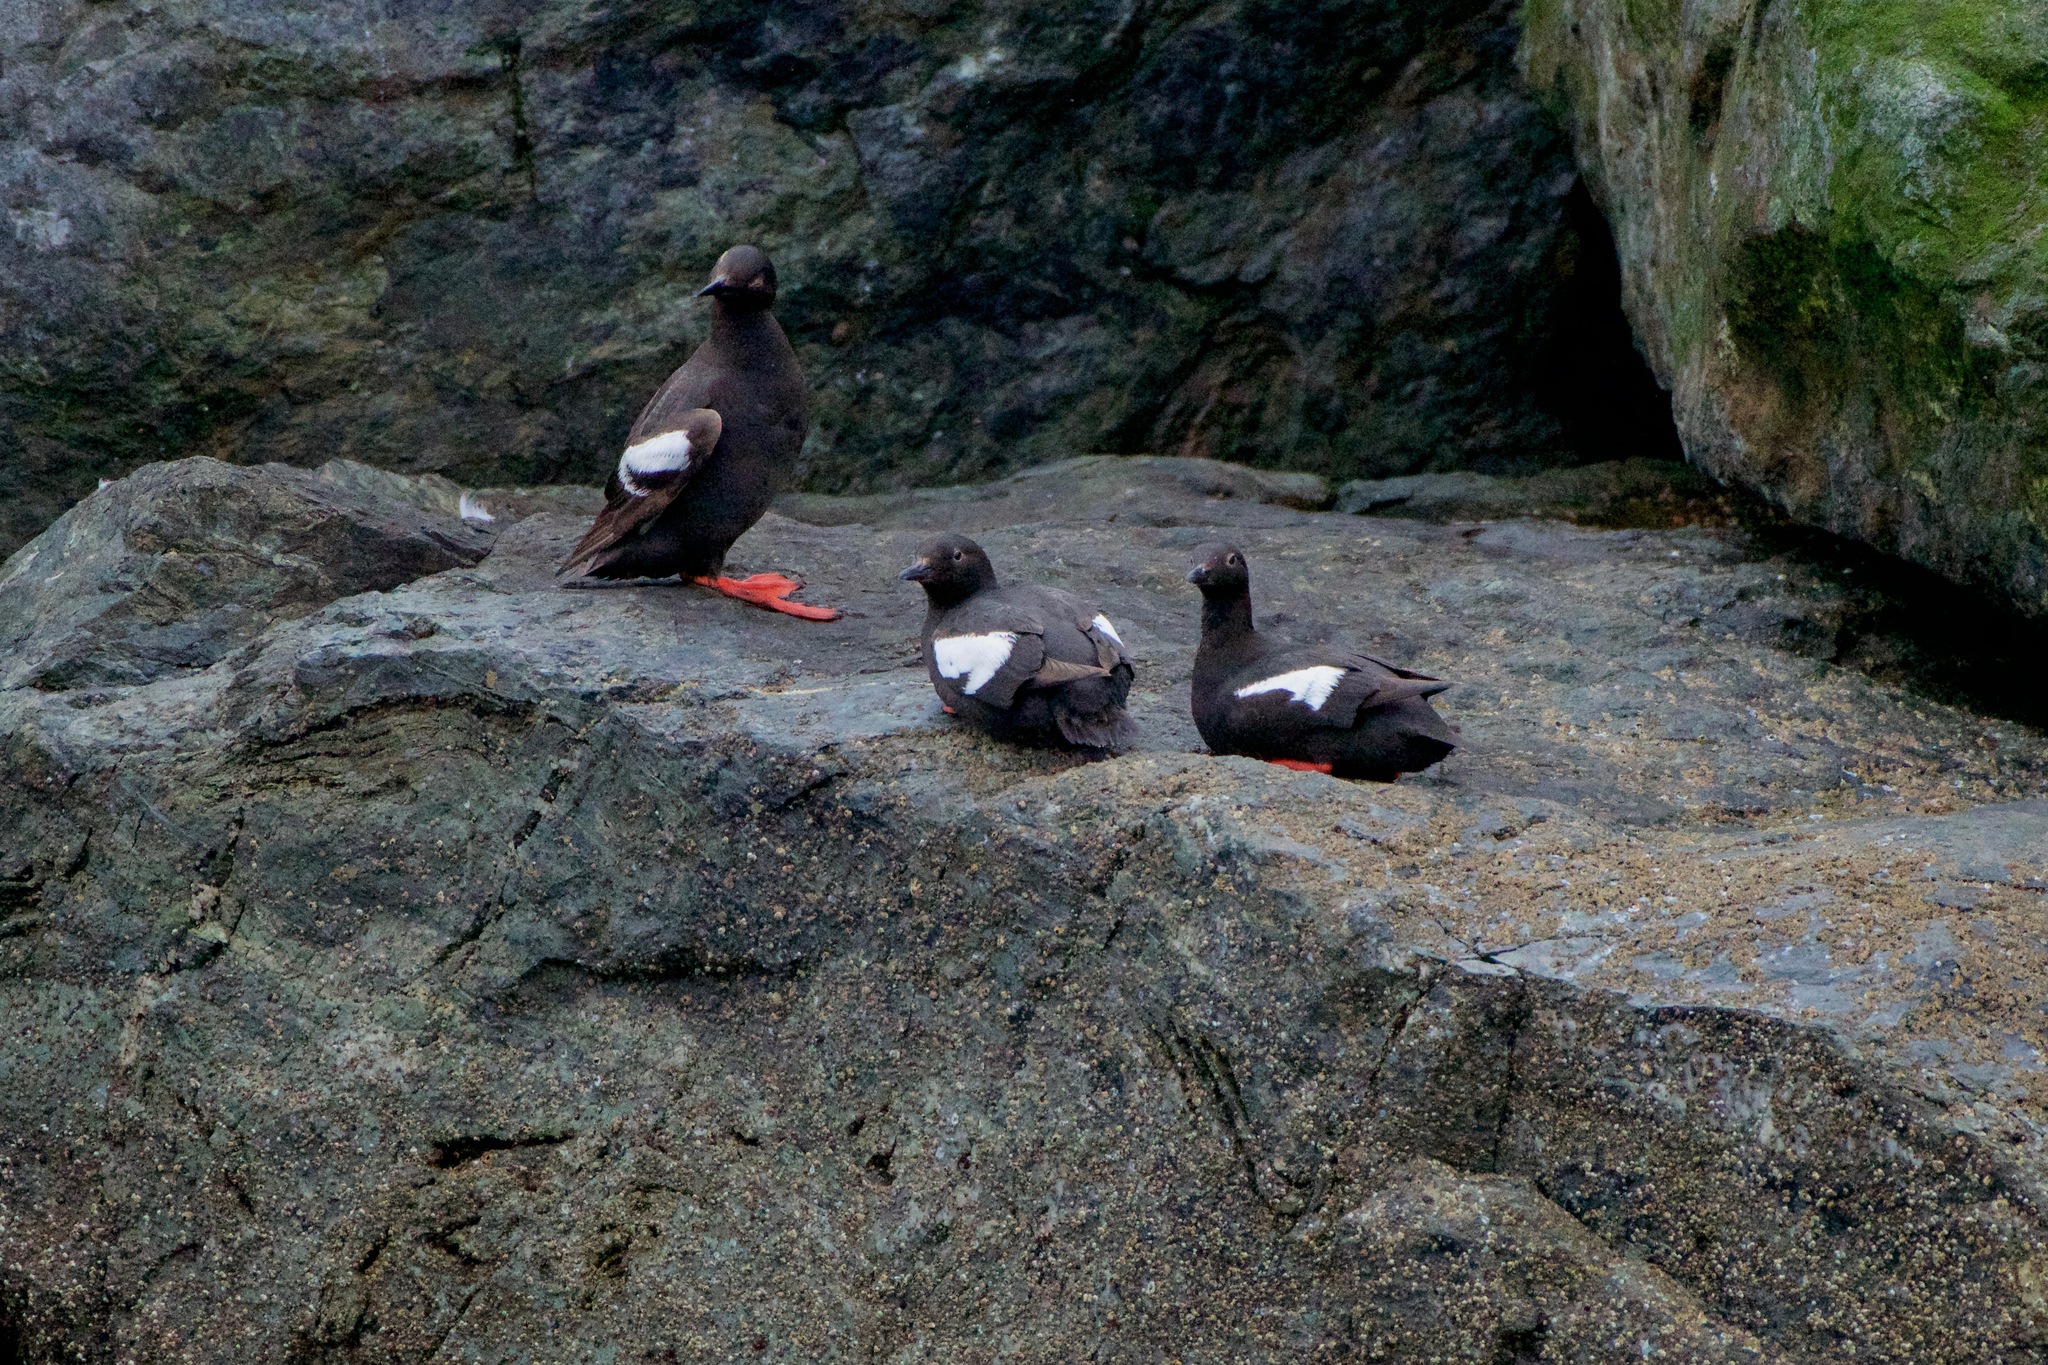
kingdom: Animalia
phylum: Chordata
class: Aves
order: Charadriiformes
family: Alcidae
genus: Cepphus
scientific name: Cepphus columba
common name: Pigeon guillemot
